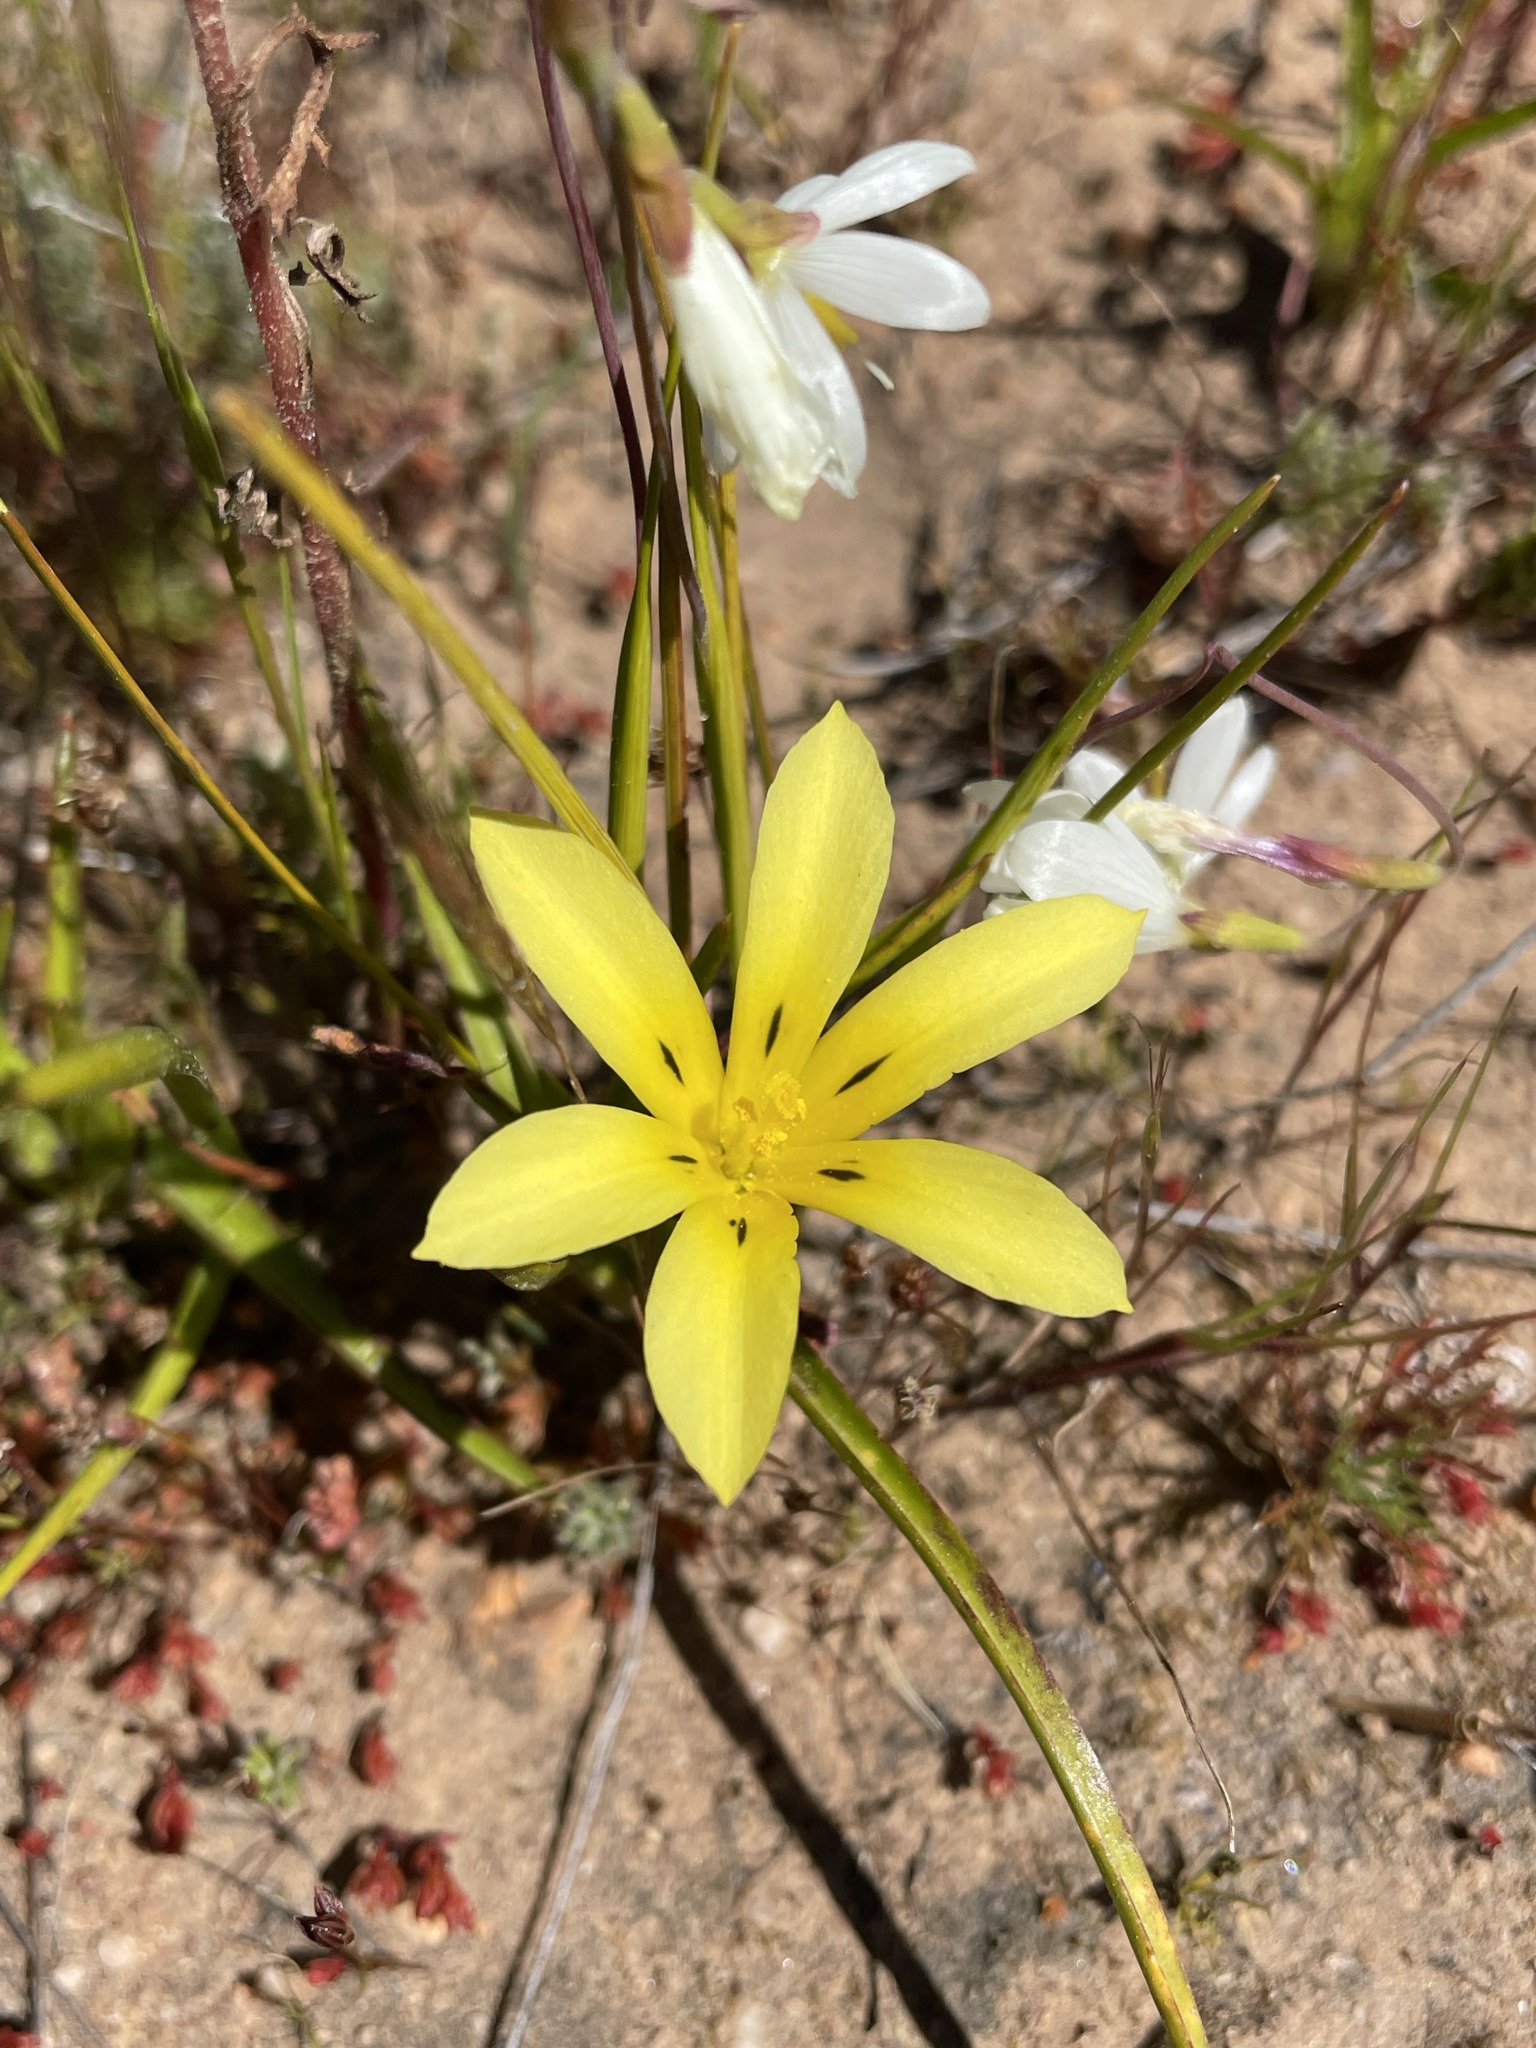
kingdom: Plantae
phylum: Tracheophyta
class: Liliopsida
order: Asparagales
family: Iridaceae
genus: Moraea
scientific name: Moraea citrina
